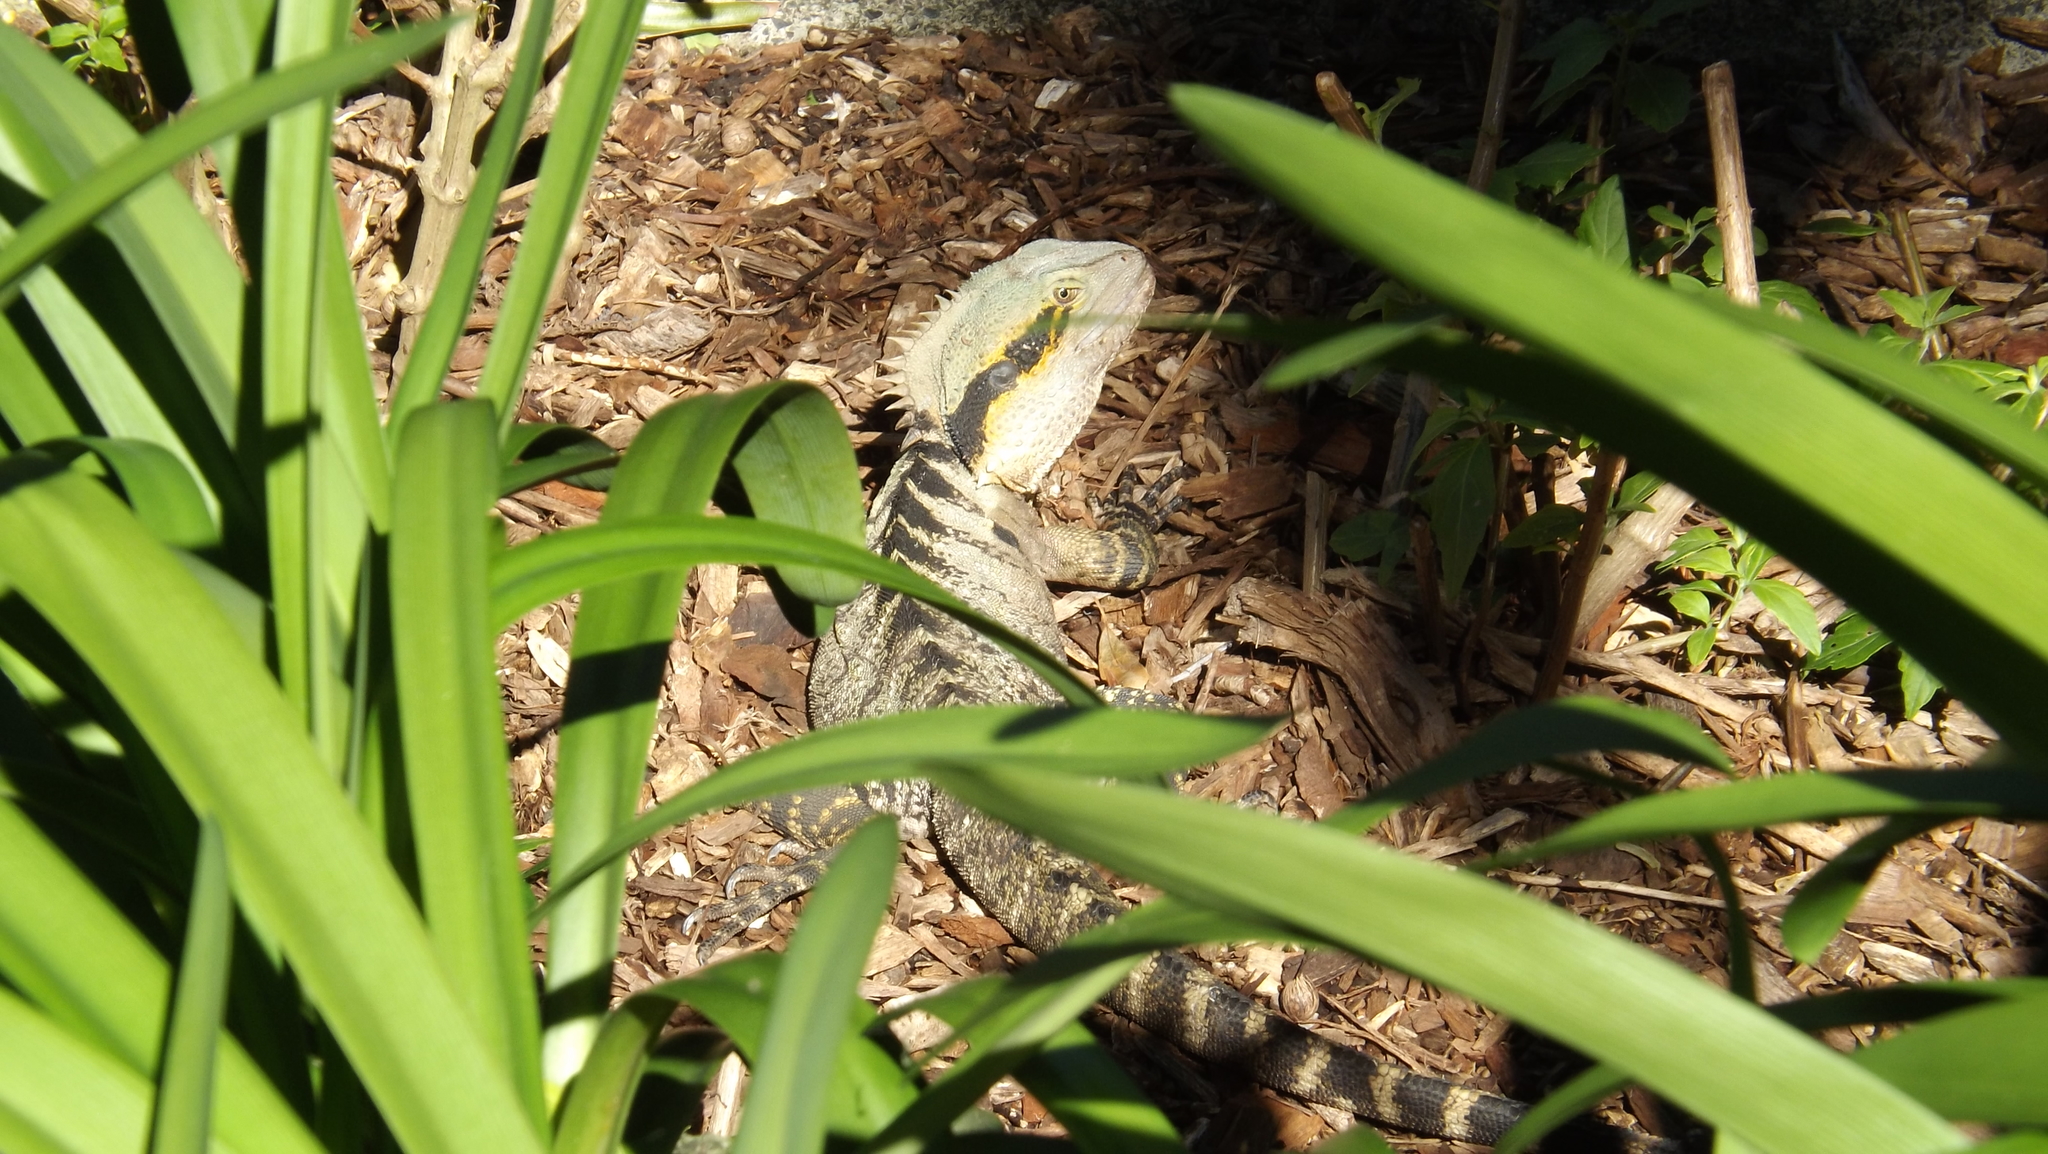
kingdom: Animalia
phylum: Chordata
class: Squamata
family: Agamidae
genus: Intellagama
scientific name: Intellagama lesueurii
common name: Eastern water dragon
